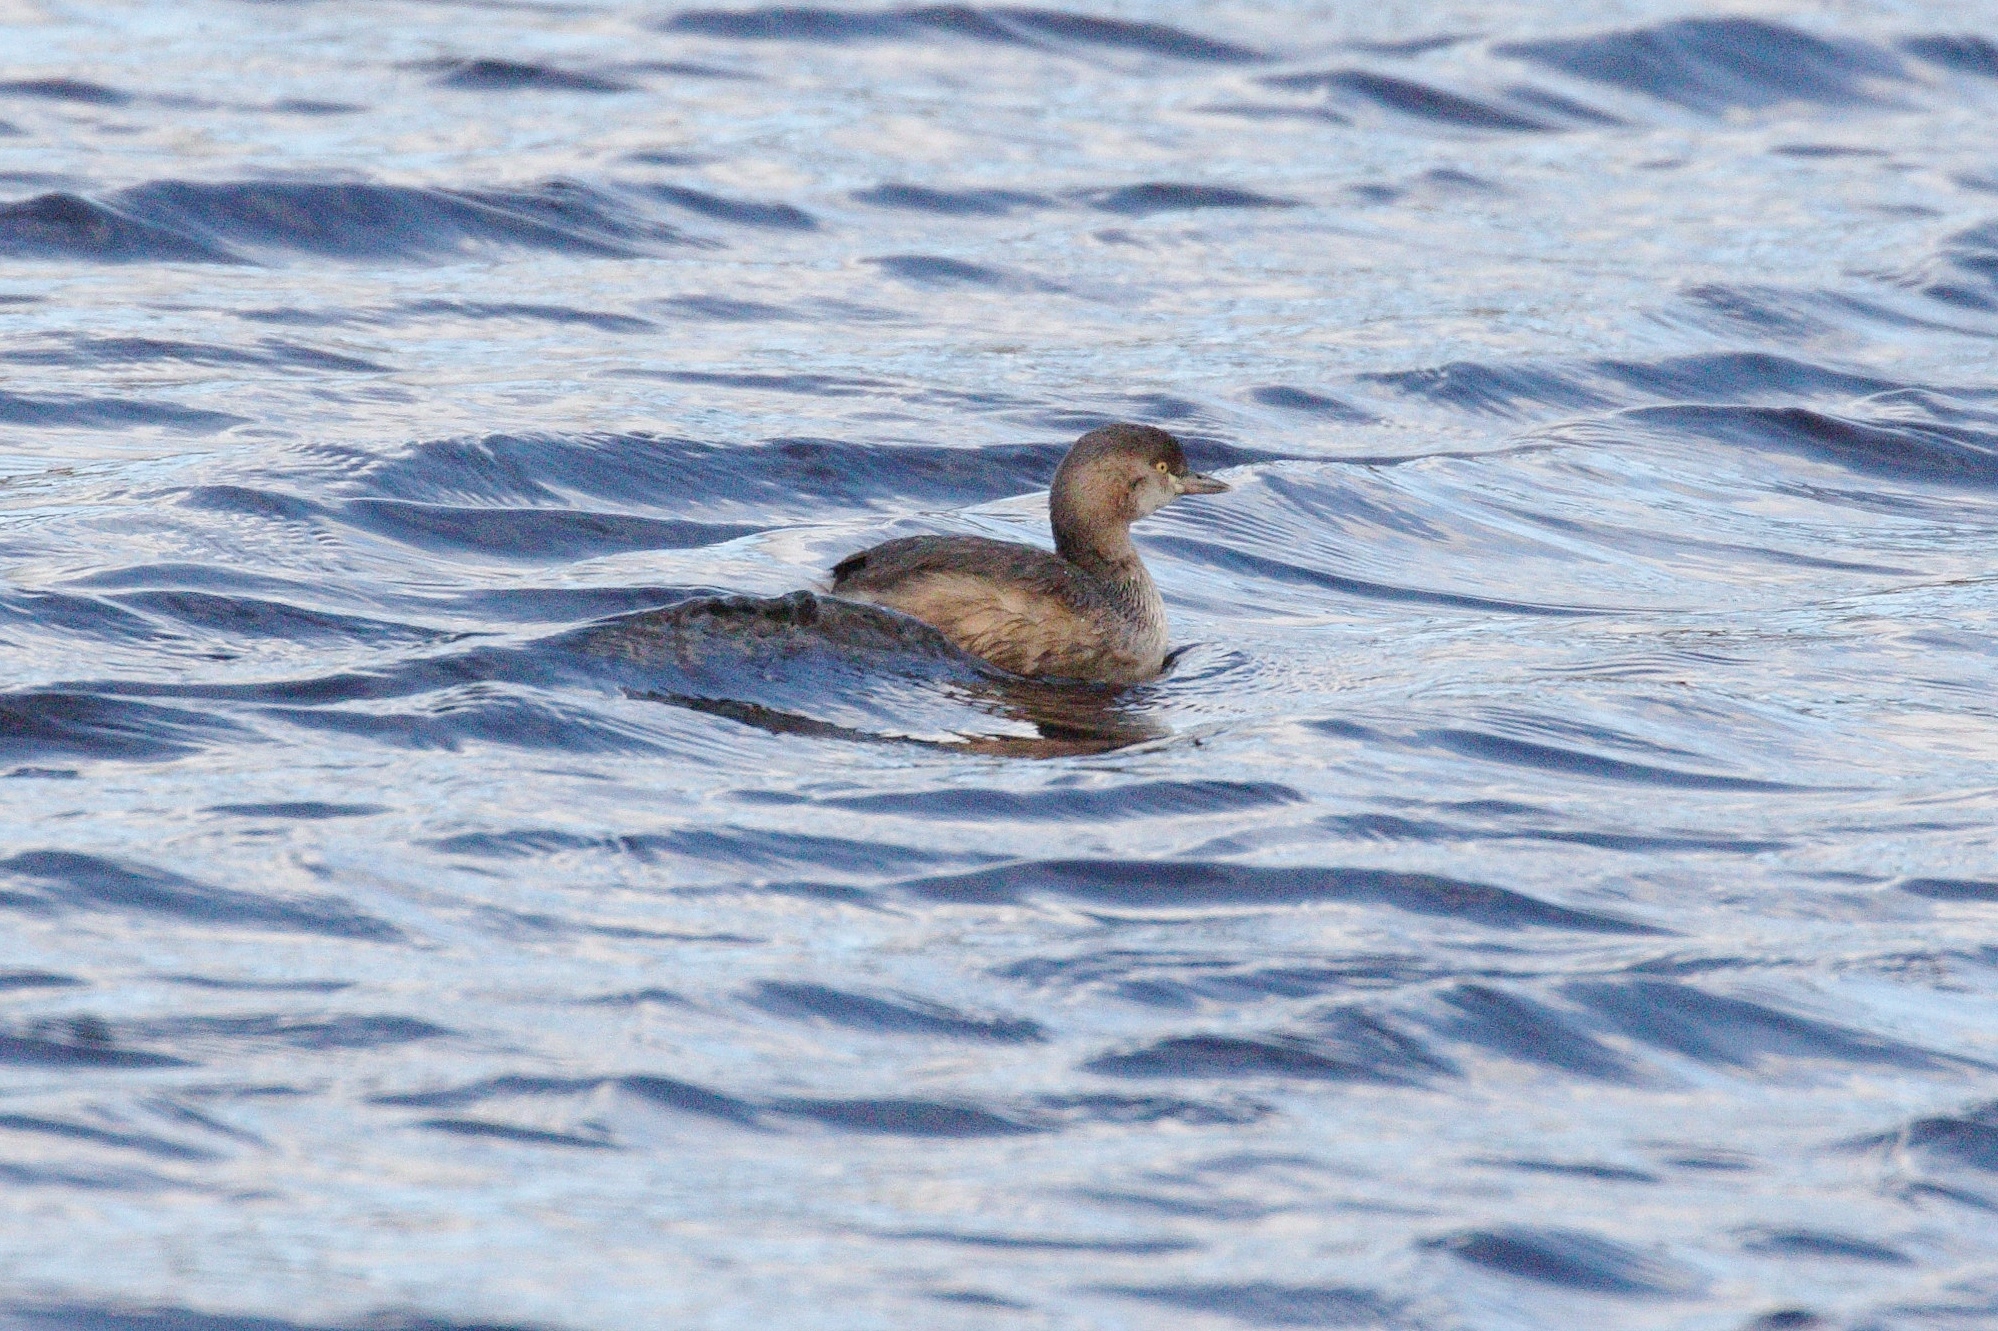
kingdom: Animalia
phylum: Chordata
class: Aves
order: Podicipediformes
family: Podicipedidae
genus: Tachybaptus
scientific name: Tachybaptus novaehollandiae
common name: Australasian grebe
